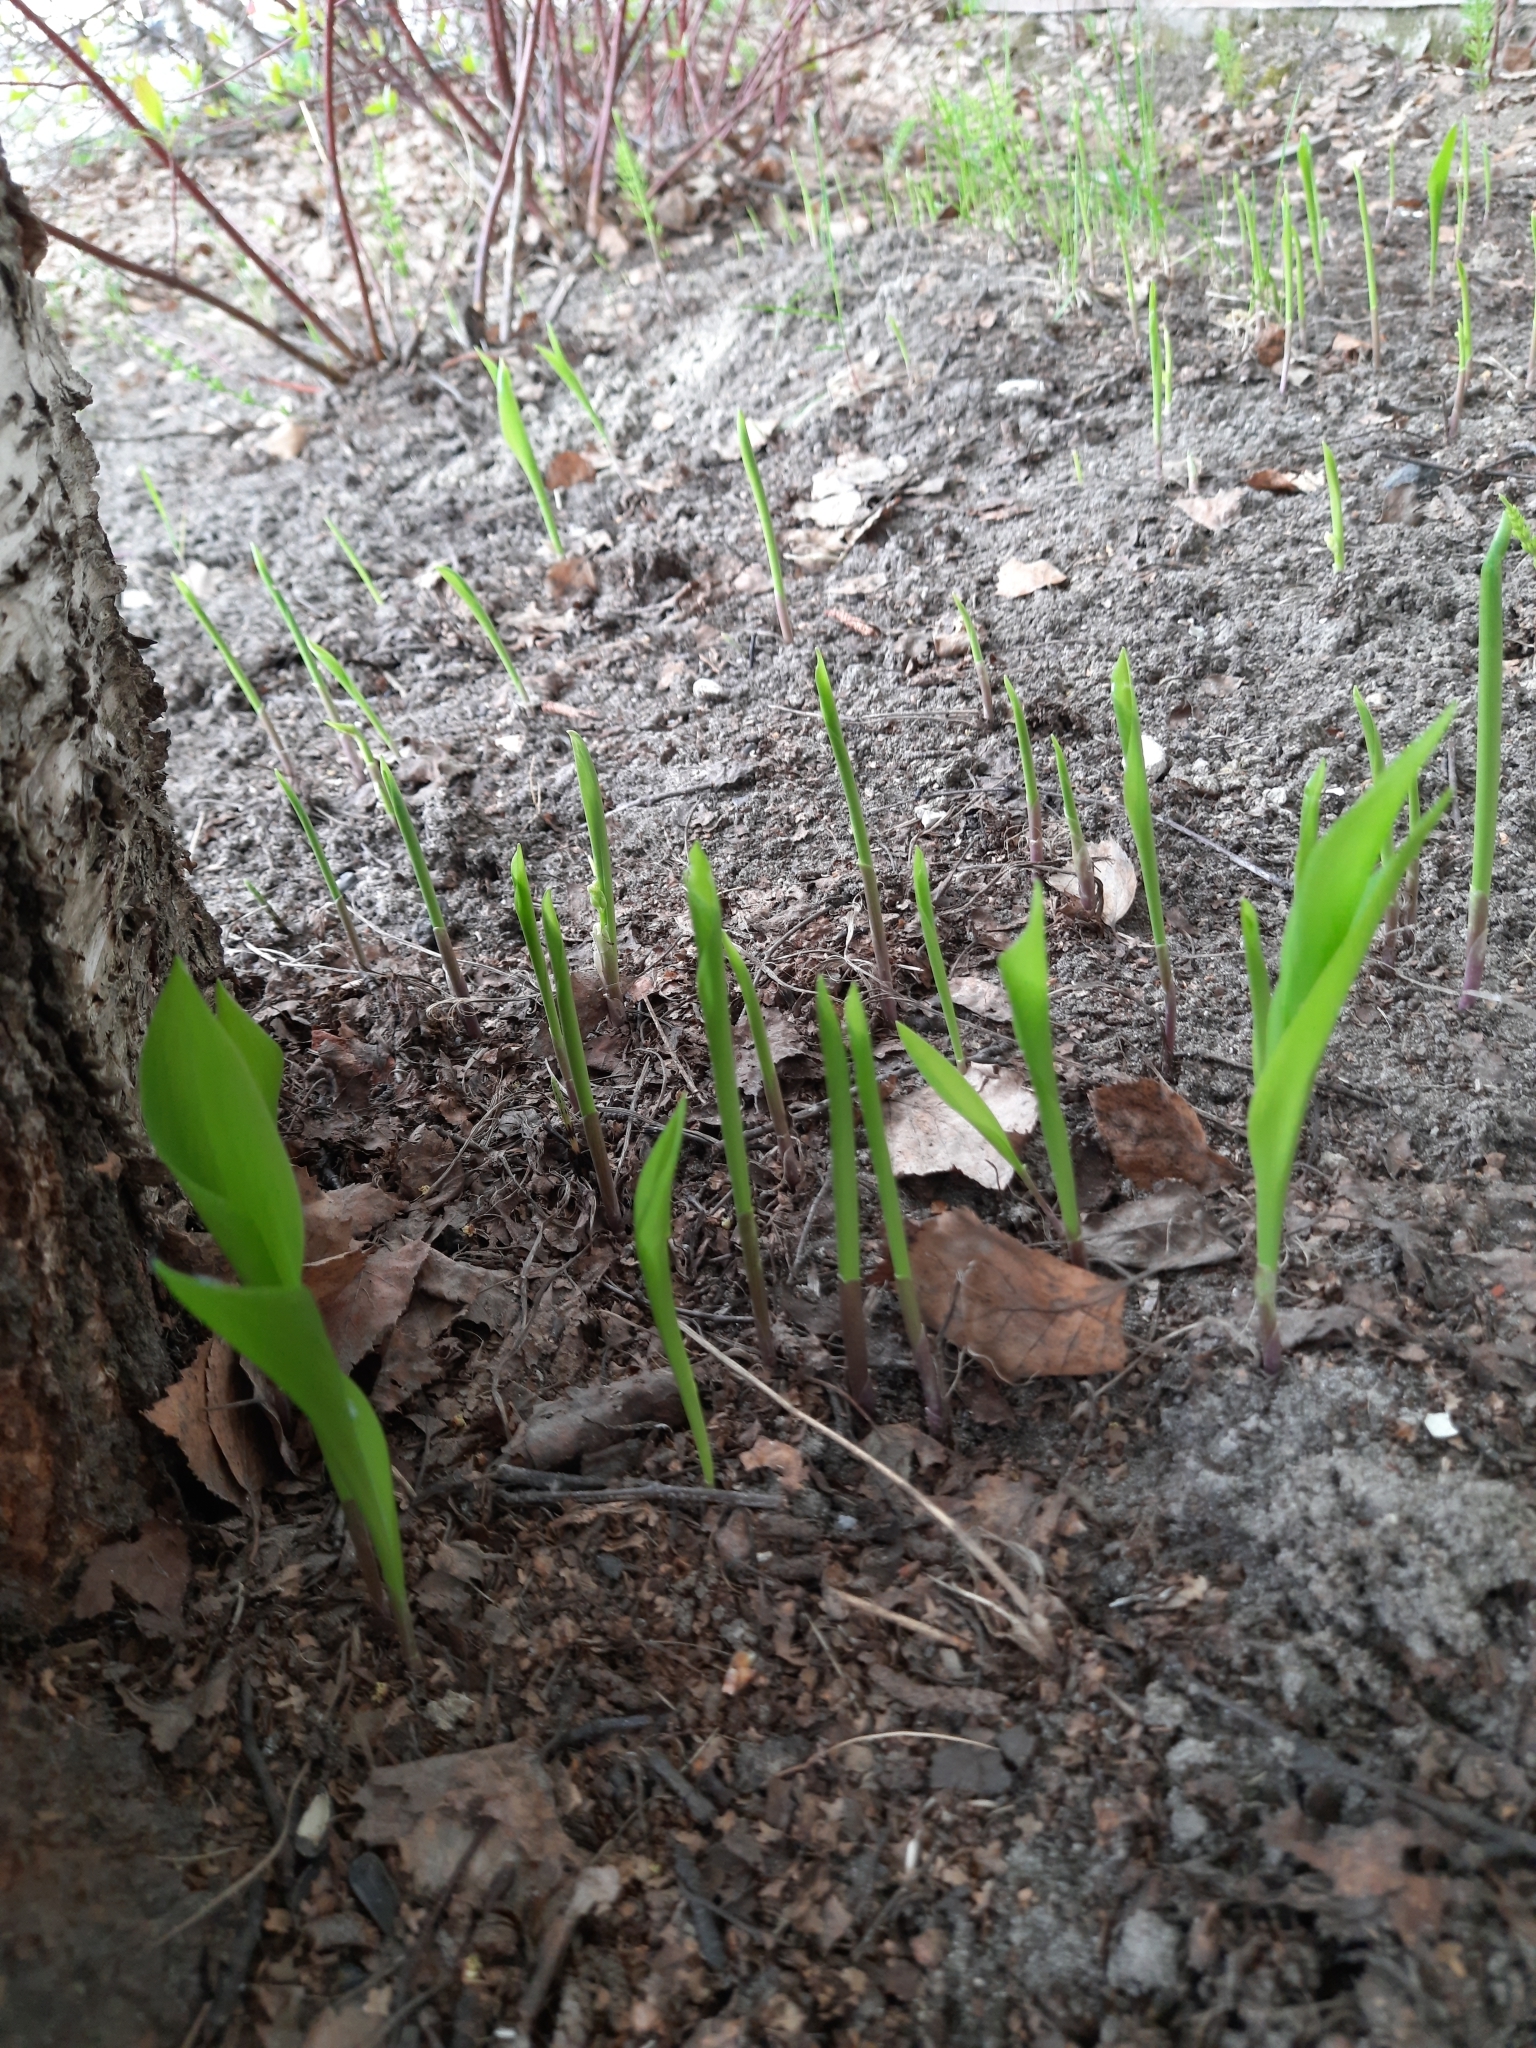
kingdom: Plantae
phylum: Tracheophyta
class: Liliopsida
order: Asparagales
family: Asparagaceae
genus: Convallaria
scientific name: Convallaria majalis
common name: Lily-of-the-valley
